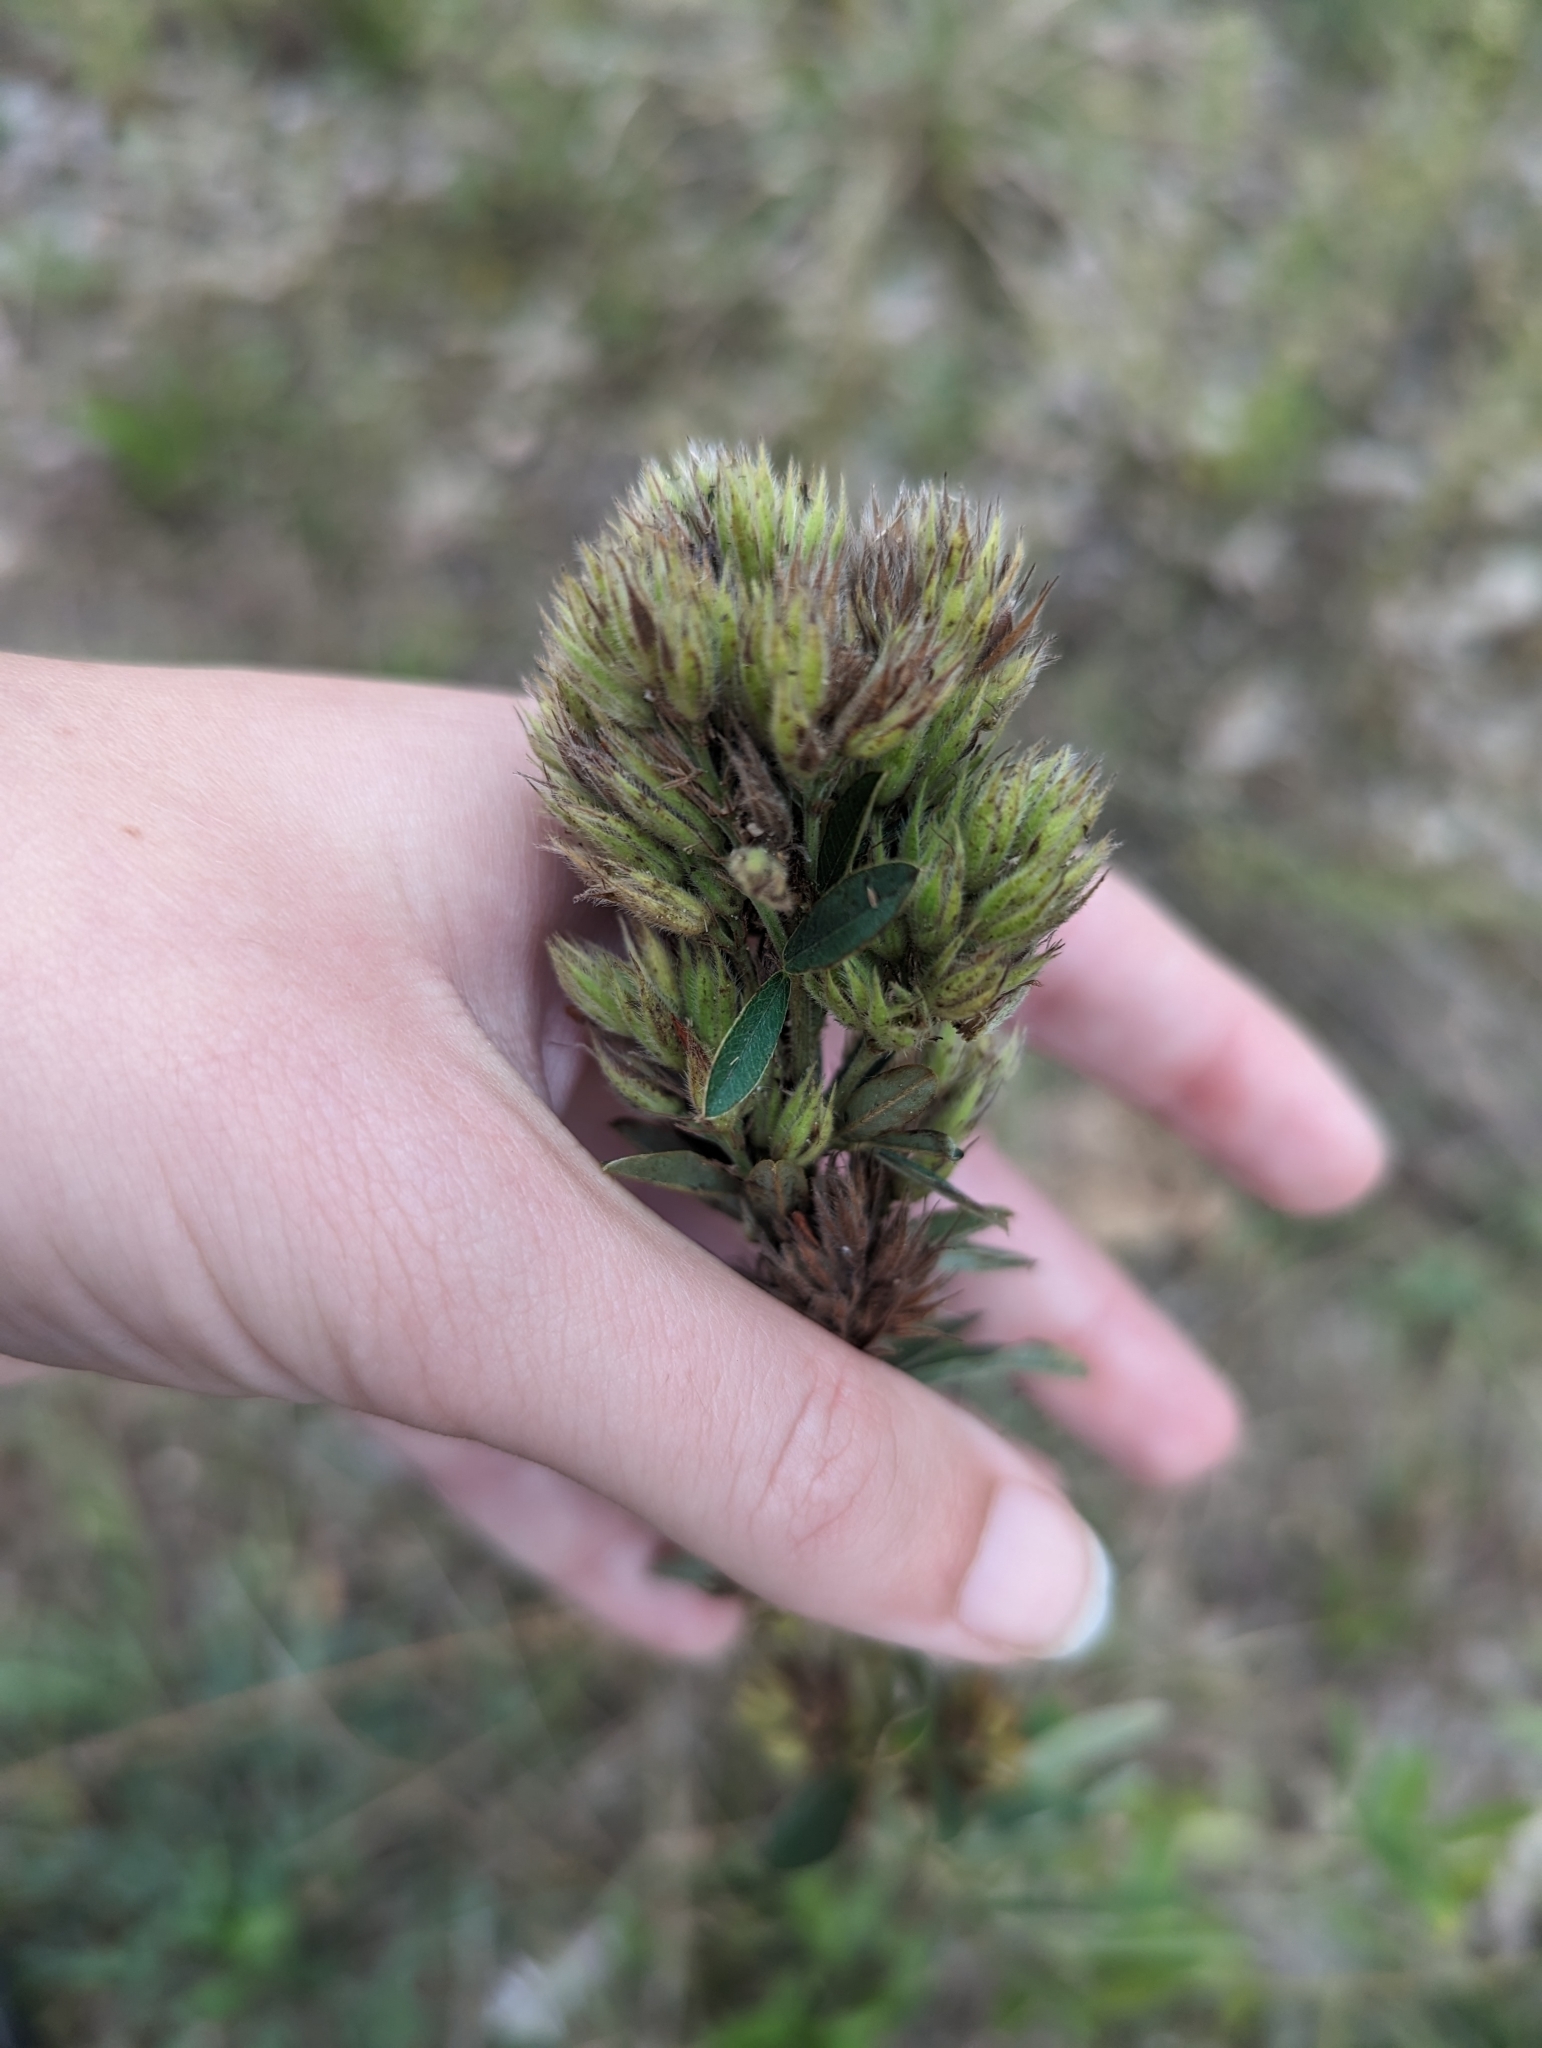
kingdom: Plantae
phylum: Tracheophyta
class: Magnoliopsida
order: Fabales
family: Fabaceae
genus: Lespedeza
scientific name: Lespedeza capitata
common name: Dusty clover
